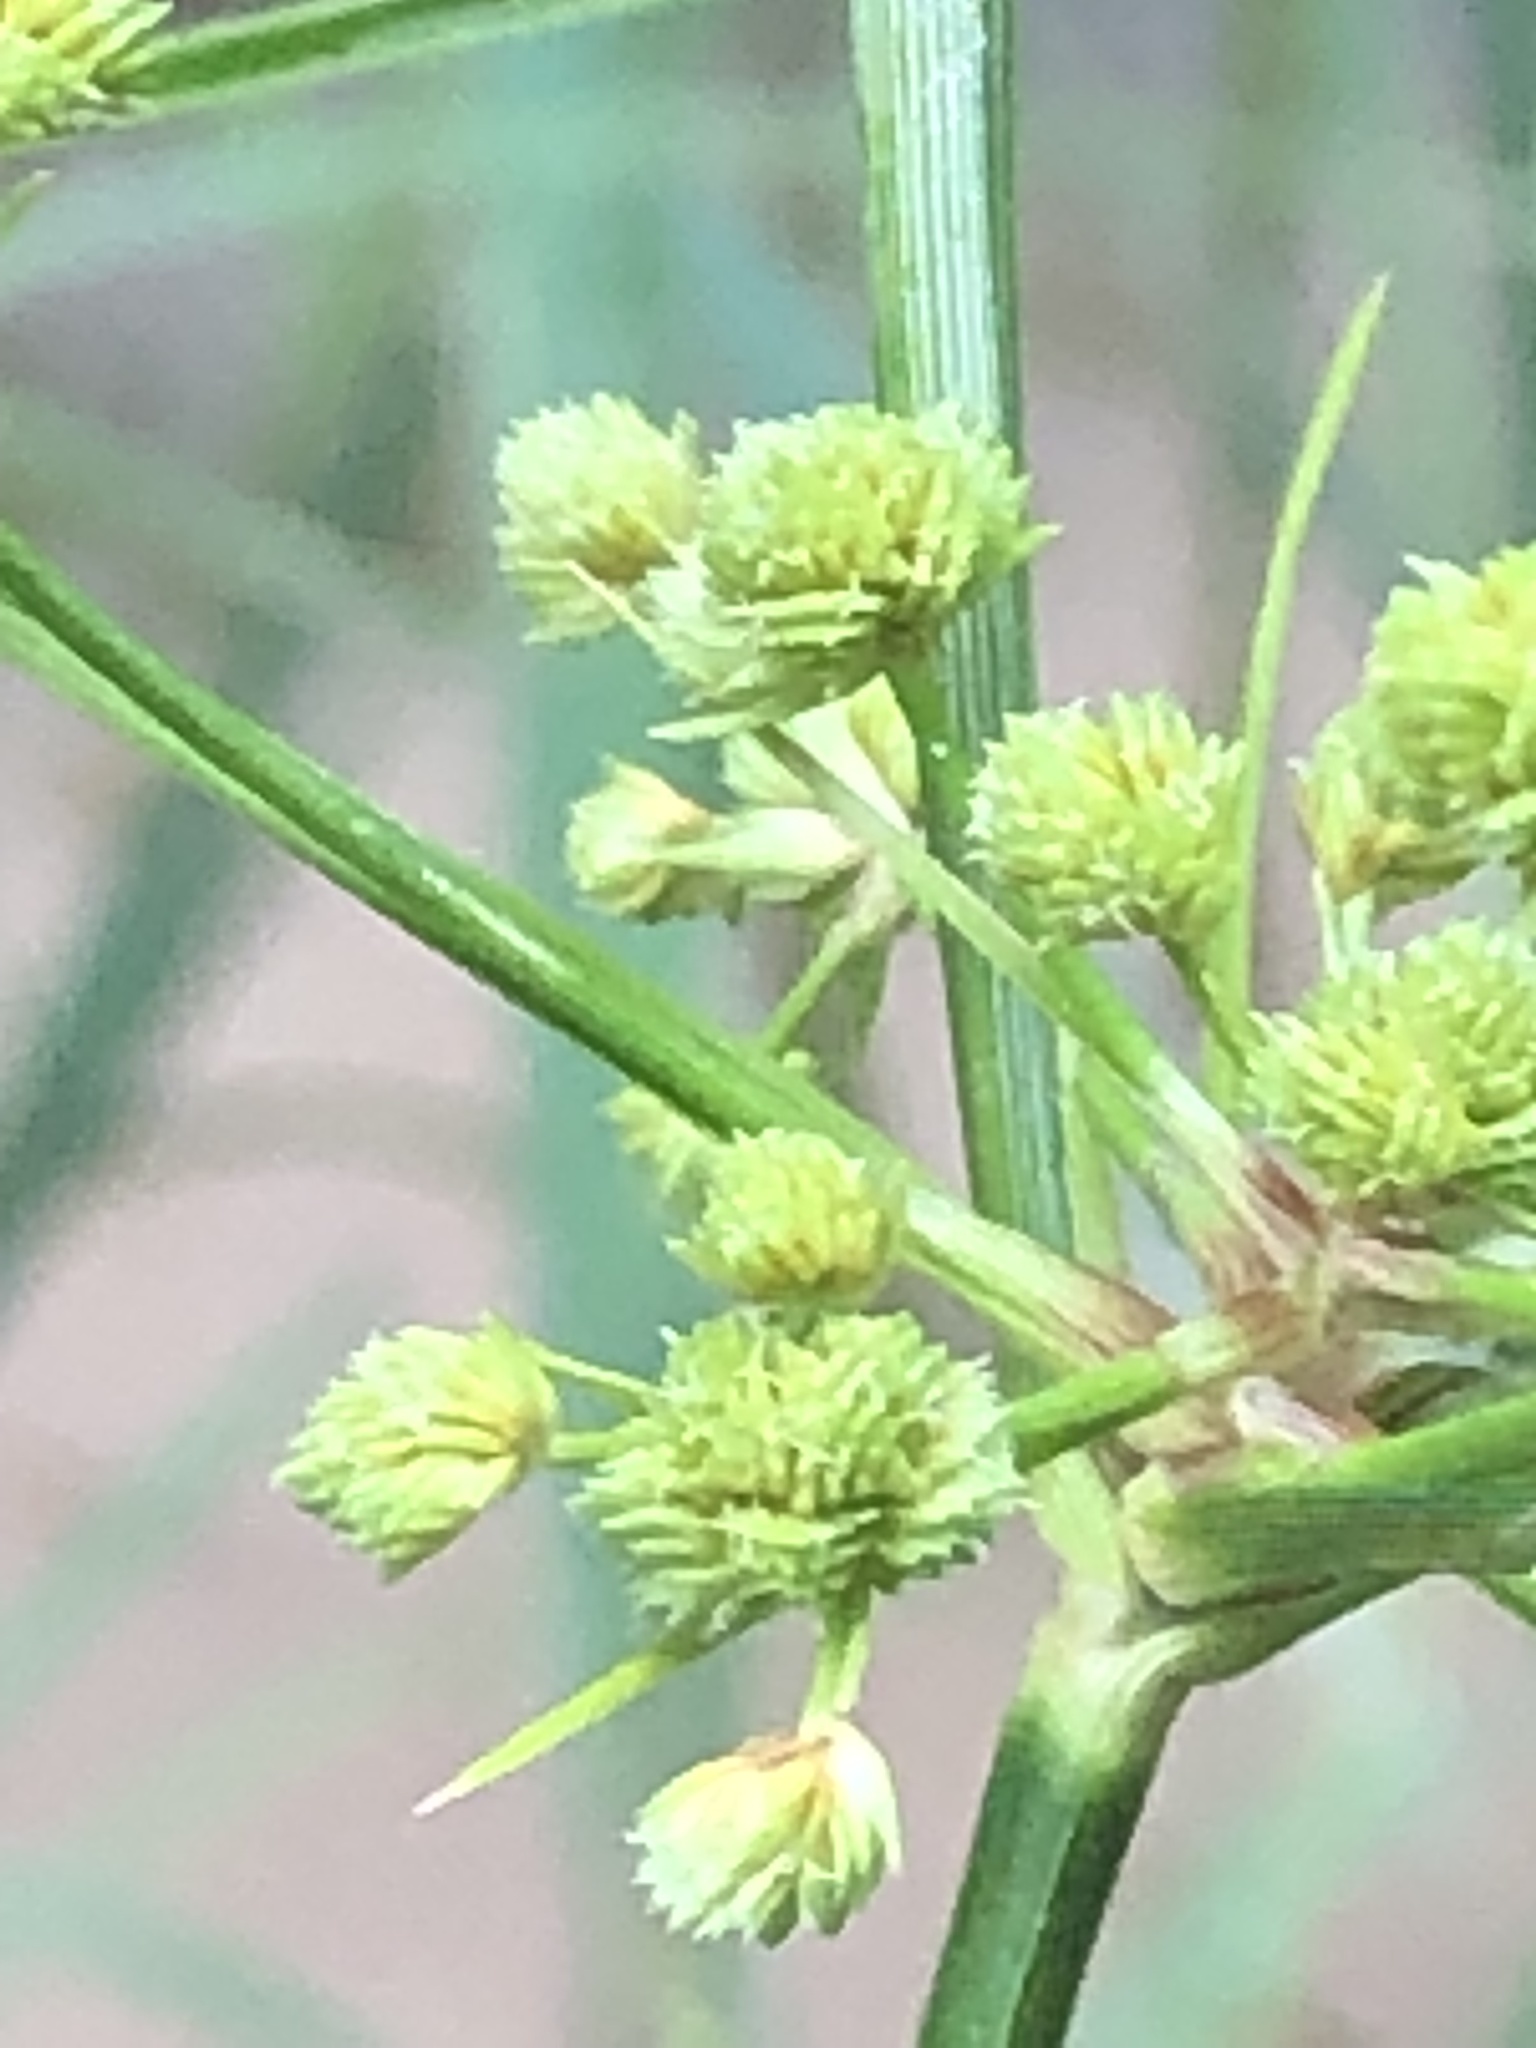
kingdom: Plantae
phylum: Tracheophyta
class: Liliopsida
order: Poales
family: Cyperaceae
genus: Cyperus
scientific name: Cyperus pseudovegetus
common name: Marsh flat sedge
